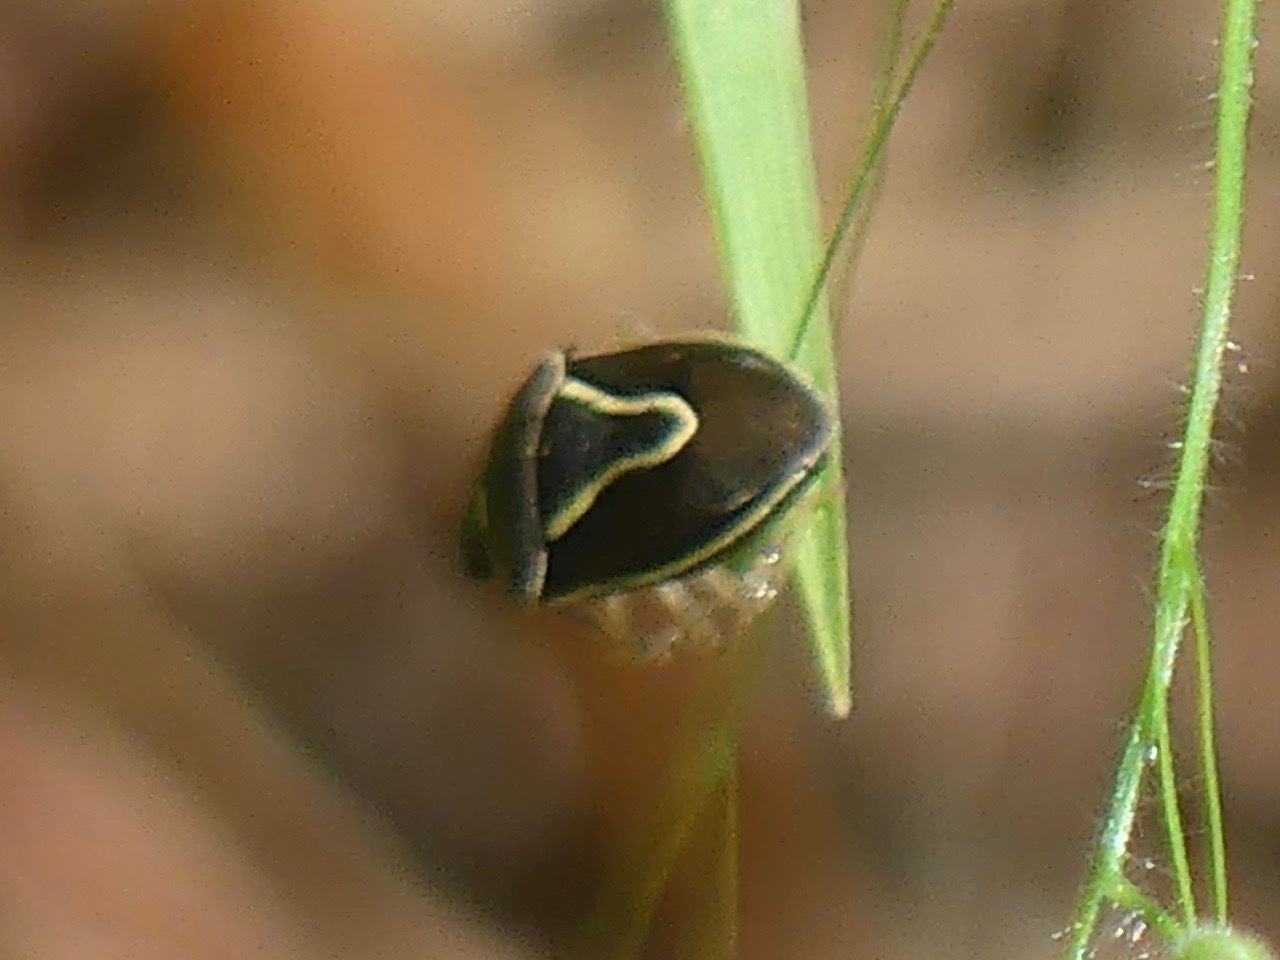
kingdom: Animalia
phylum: Arthropoda
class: Insecta
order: Hemiptera
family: Pentatomidae
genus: Mormidea
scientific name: Mormidea lugens
